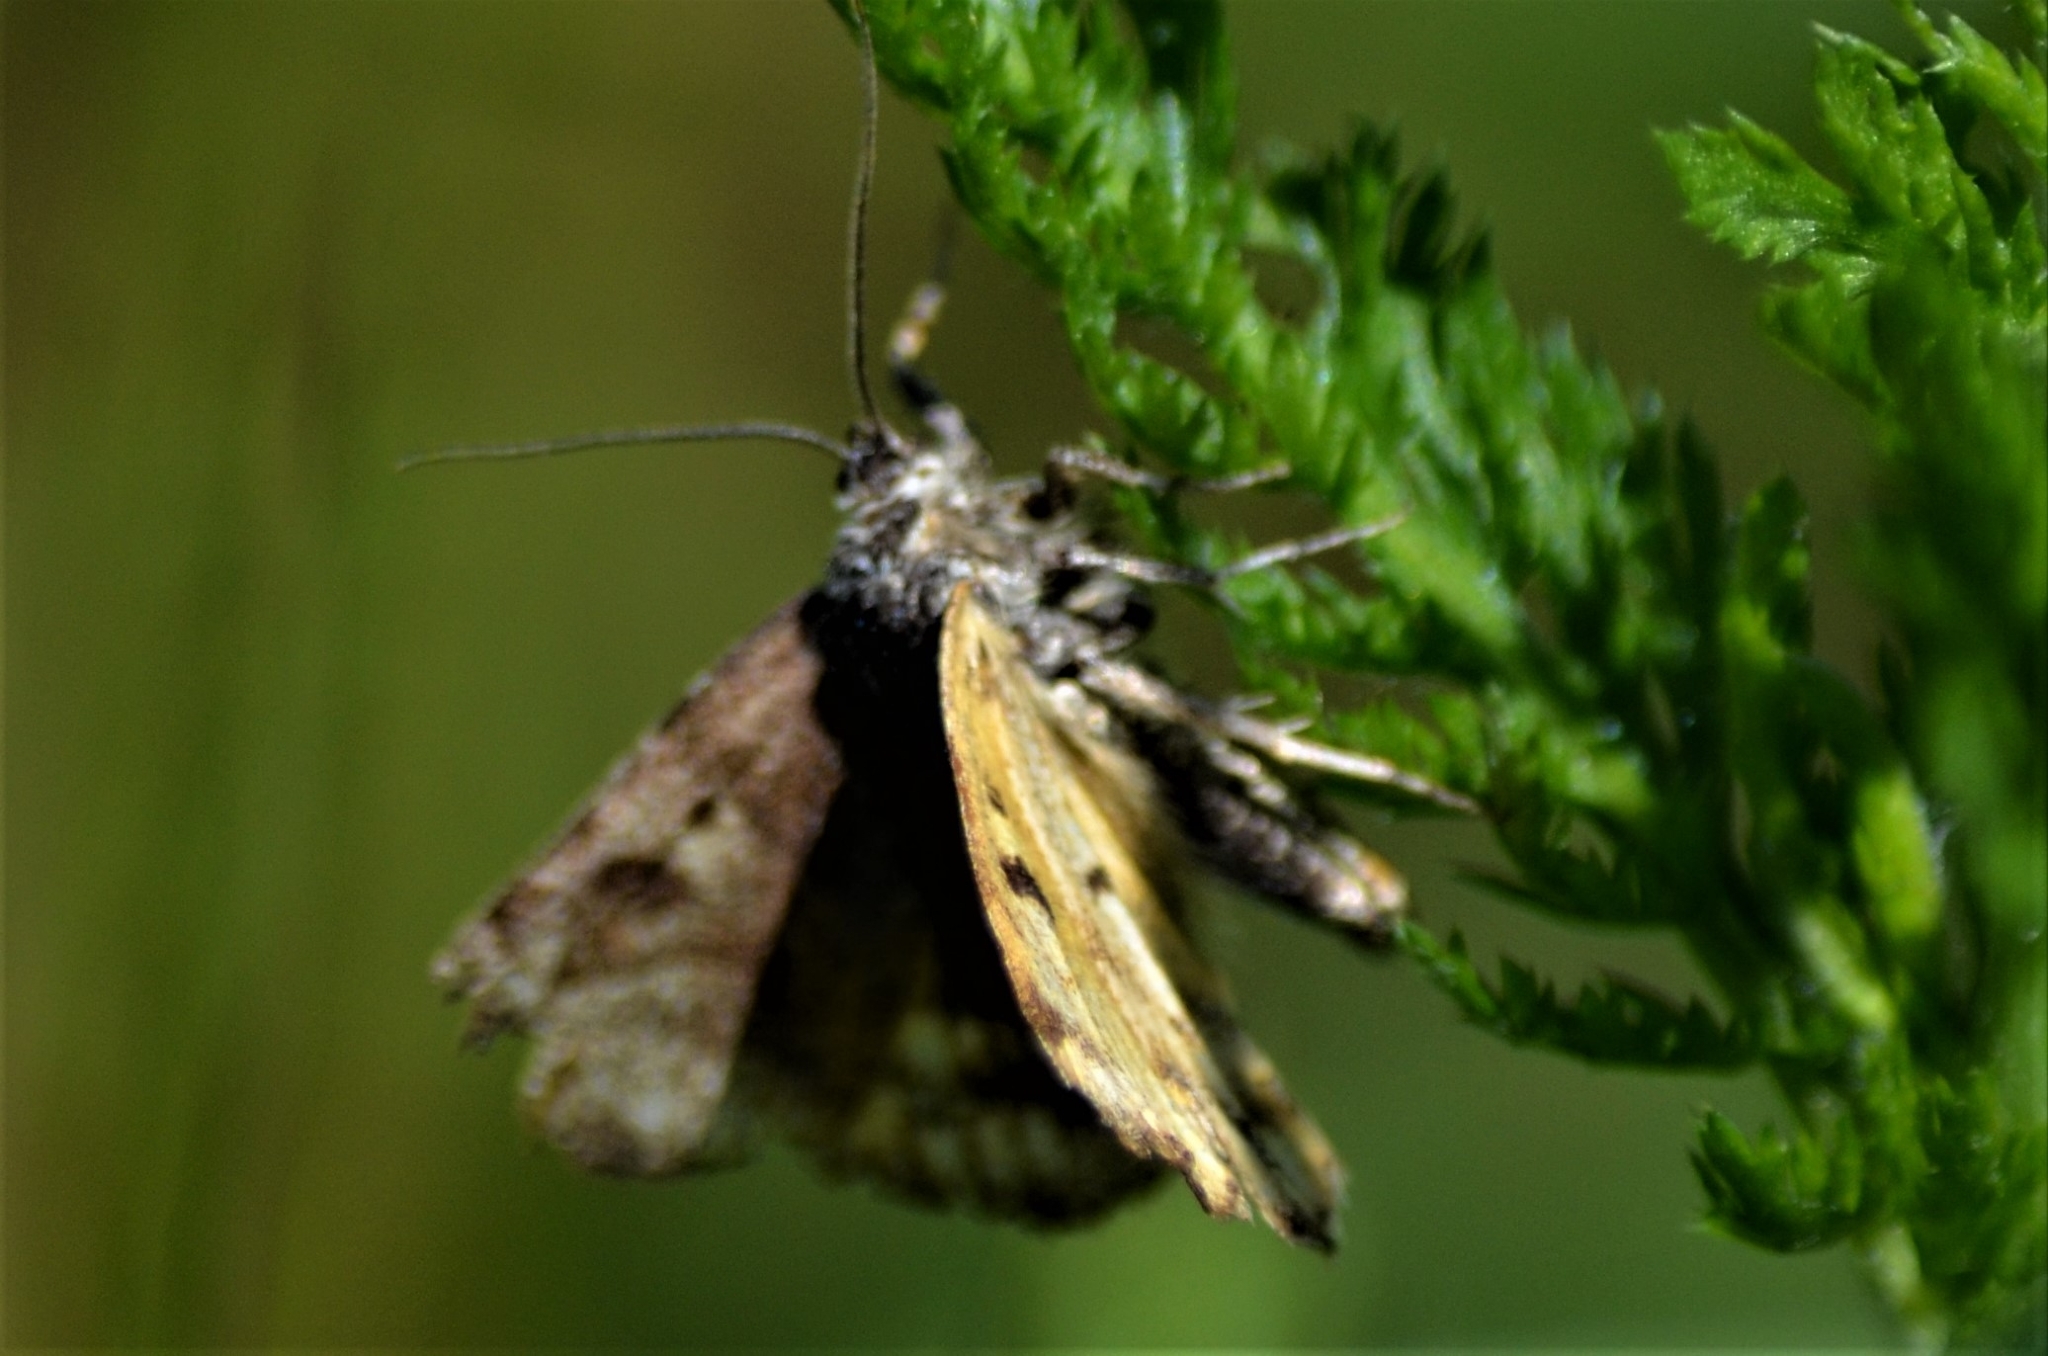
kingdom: Animalia
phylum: Arthropoda
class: Insecta
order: Lepidoptera
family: Erebidae
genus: Euclidia
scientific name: Euclidia glyphica
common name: Burnet companion
